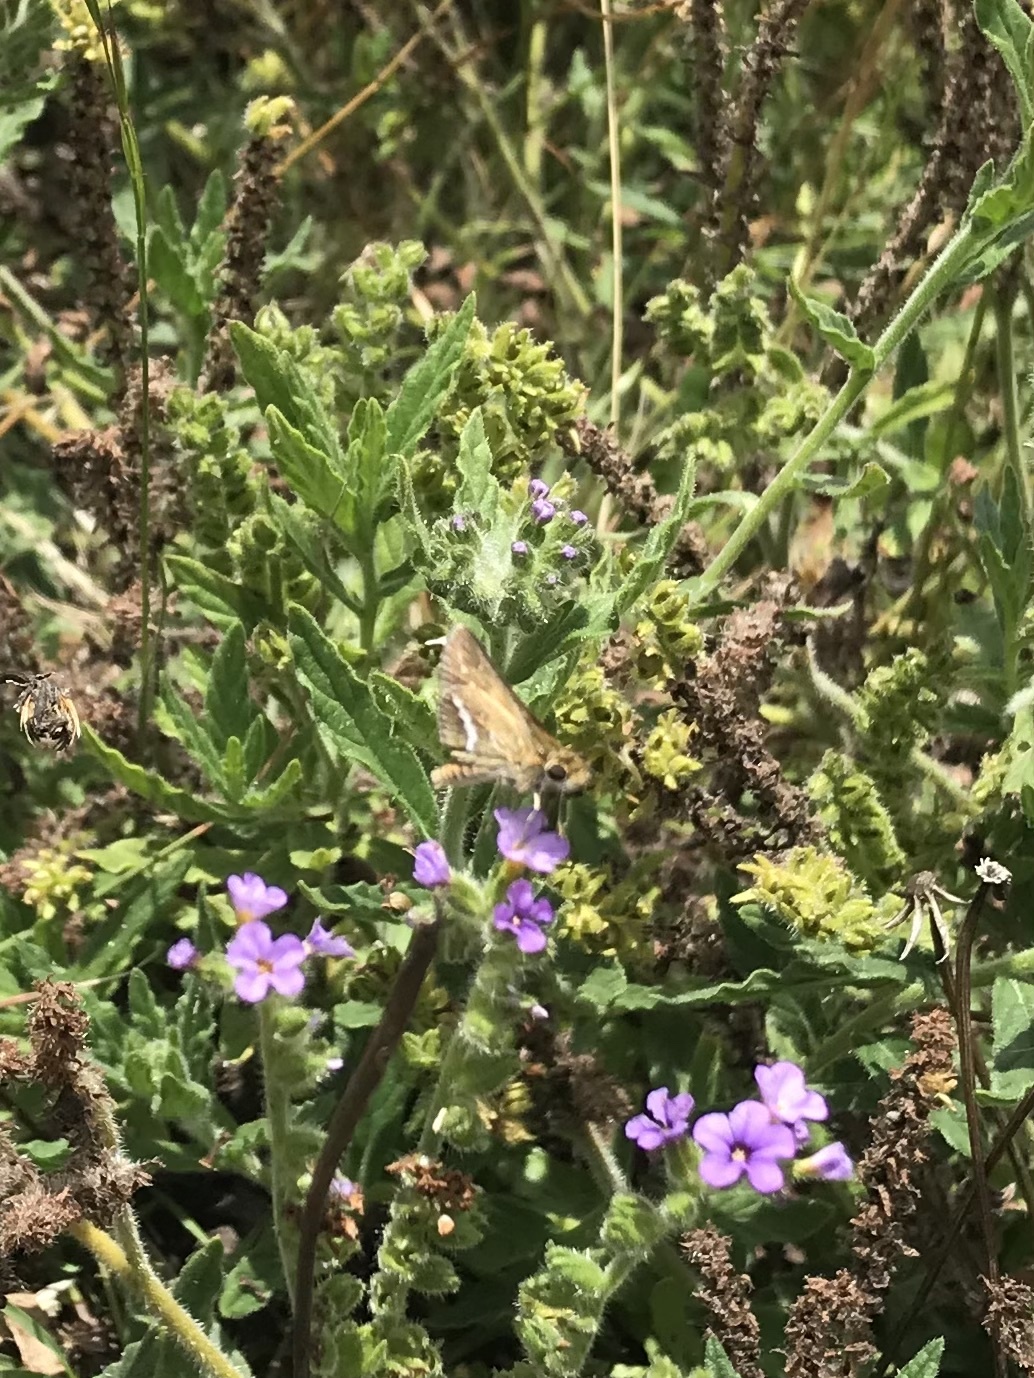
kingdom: Animalia
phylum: Arthropoda
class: Insecta
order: Lepidoptera
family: Hesperiidae
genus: Taractrocera
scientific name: Taractrocera papyria
